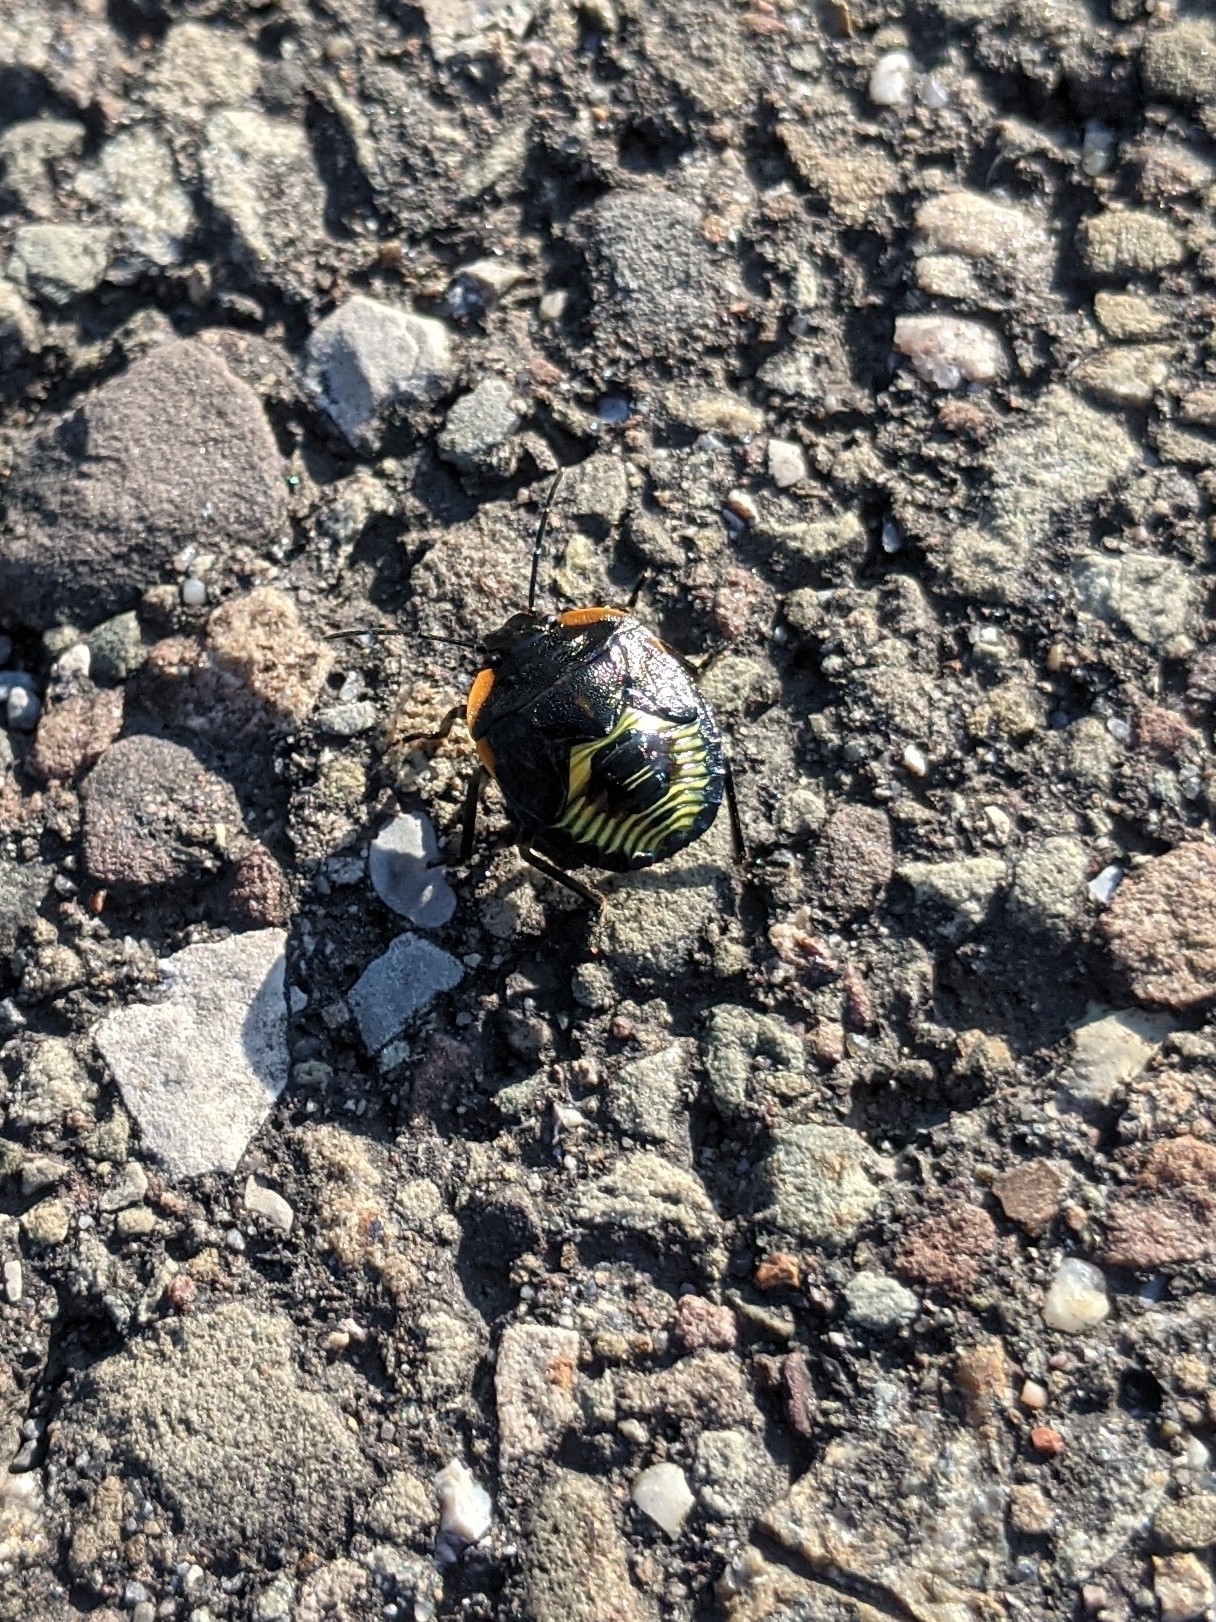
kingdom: Animalia
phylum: Arthropoda
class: Insecta
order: Hemiptera
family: Pentatomidae
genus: Chinavia
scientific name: Chinavia hilaris
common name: Green stink bug
